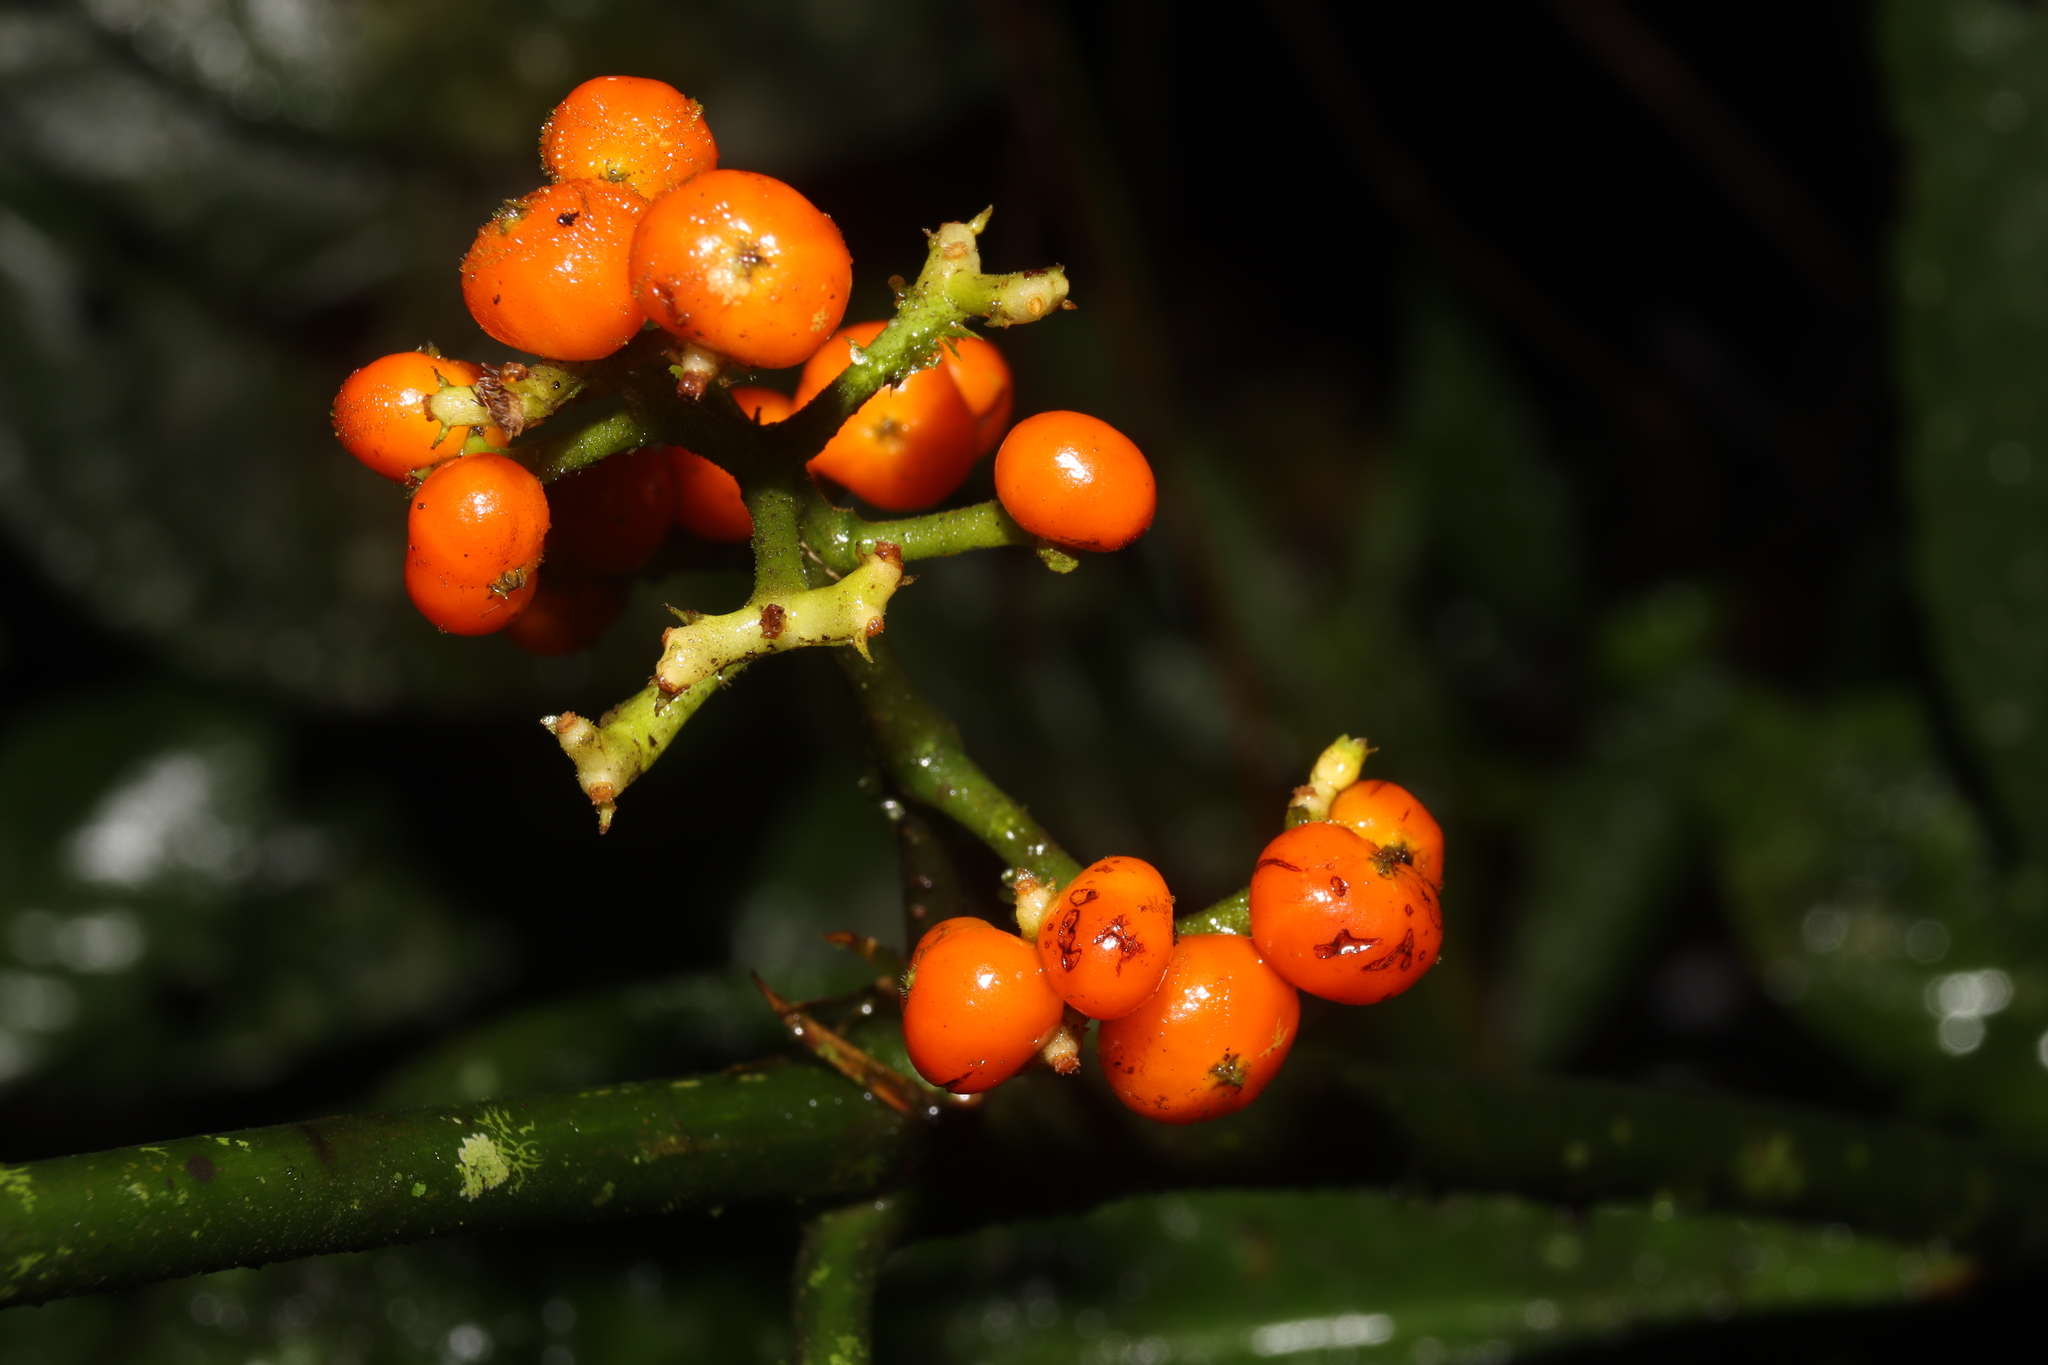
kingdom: Plantae
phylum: Tracheophyta
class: Magnoliopsida
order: Gentianales
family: Rubiaceae
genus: Palicourea
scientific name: Palicourea racemosa
